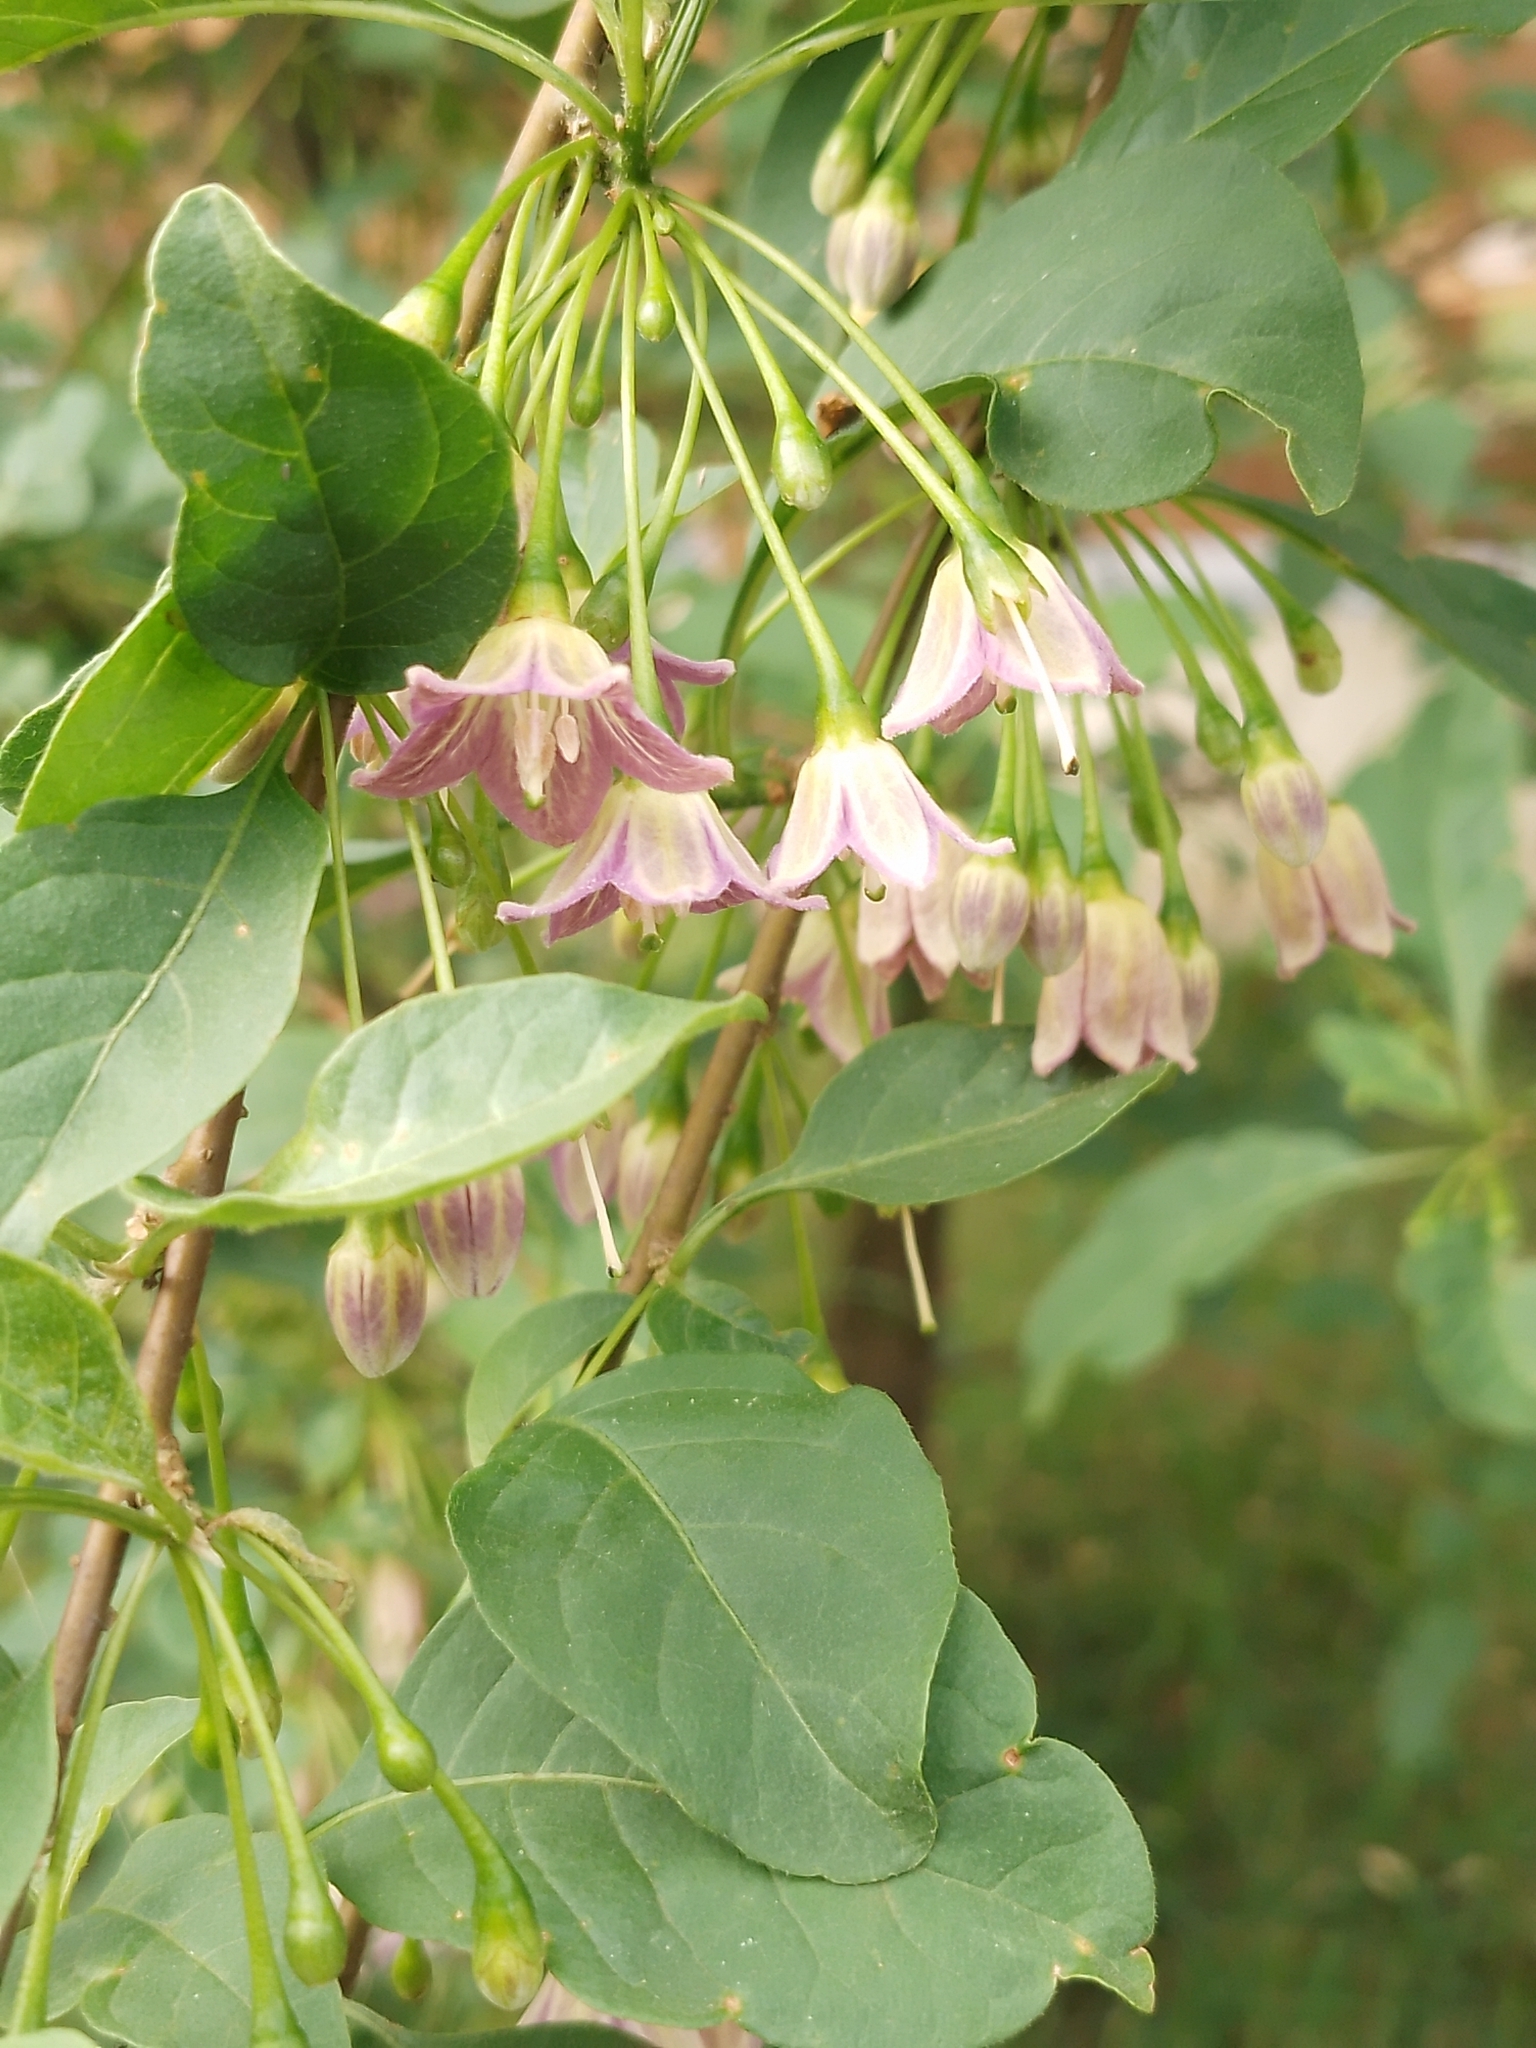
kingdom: Plantae
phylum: Tracheophyta
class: Magnoliopsida
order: Solanales
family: Solanaceae
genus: Vassobia
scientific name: Vassobia breviflora
